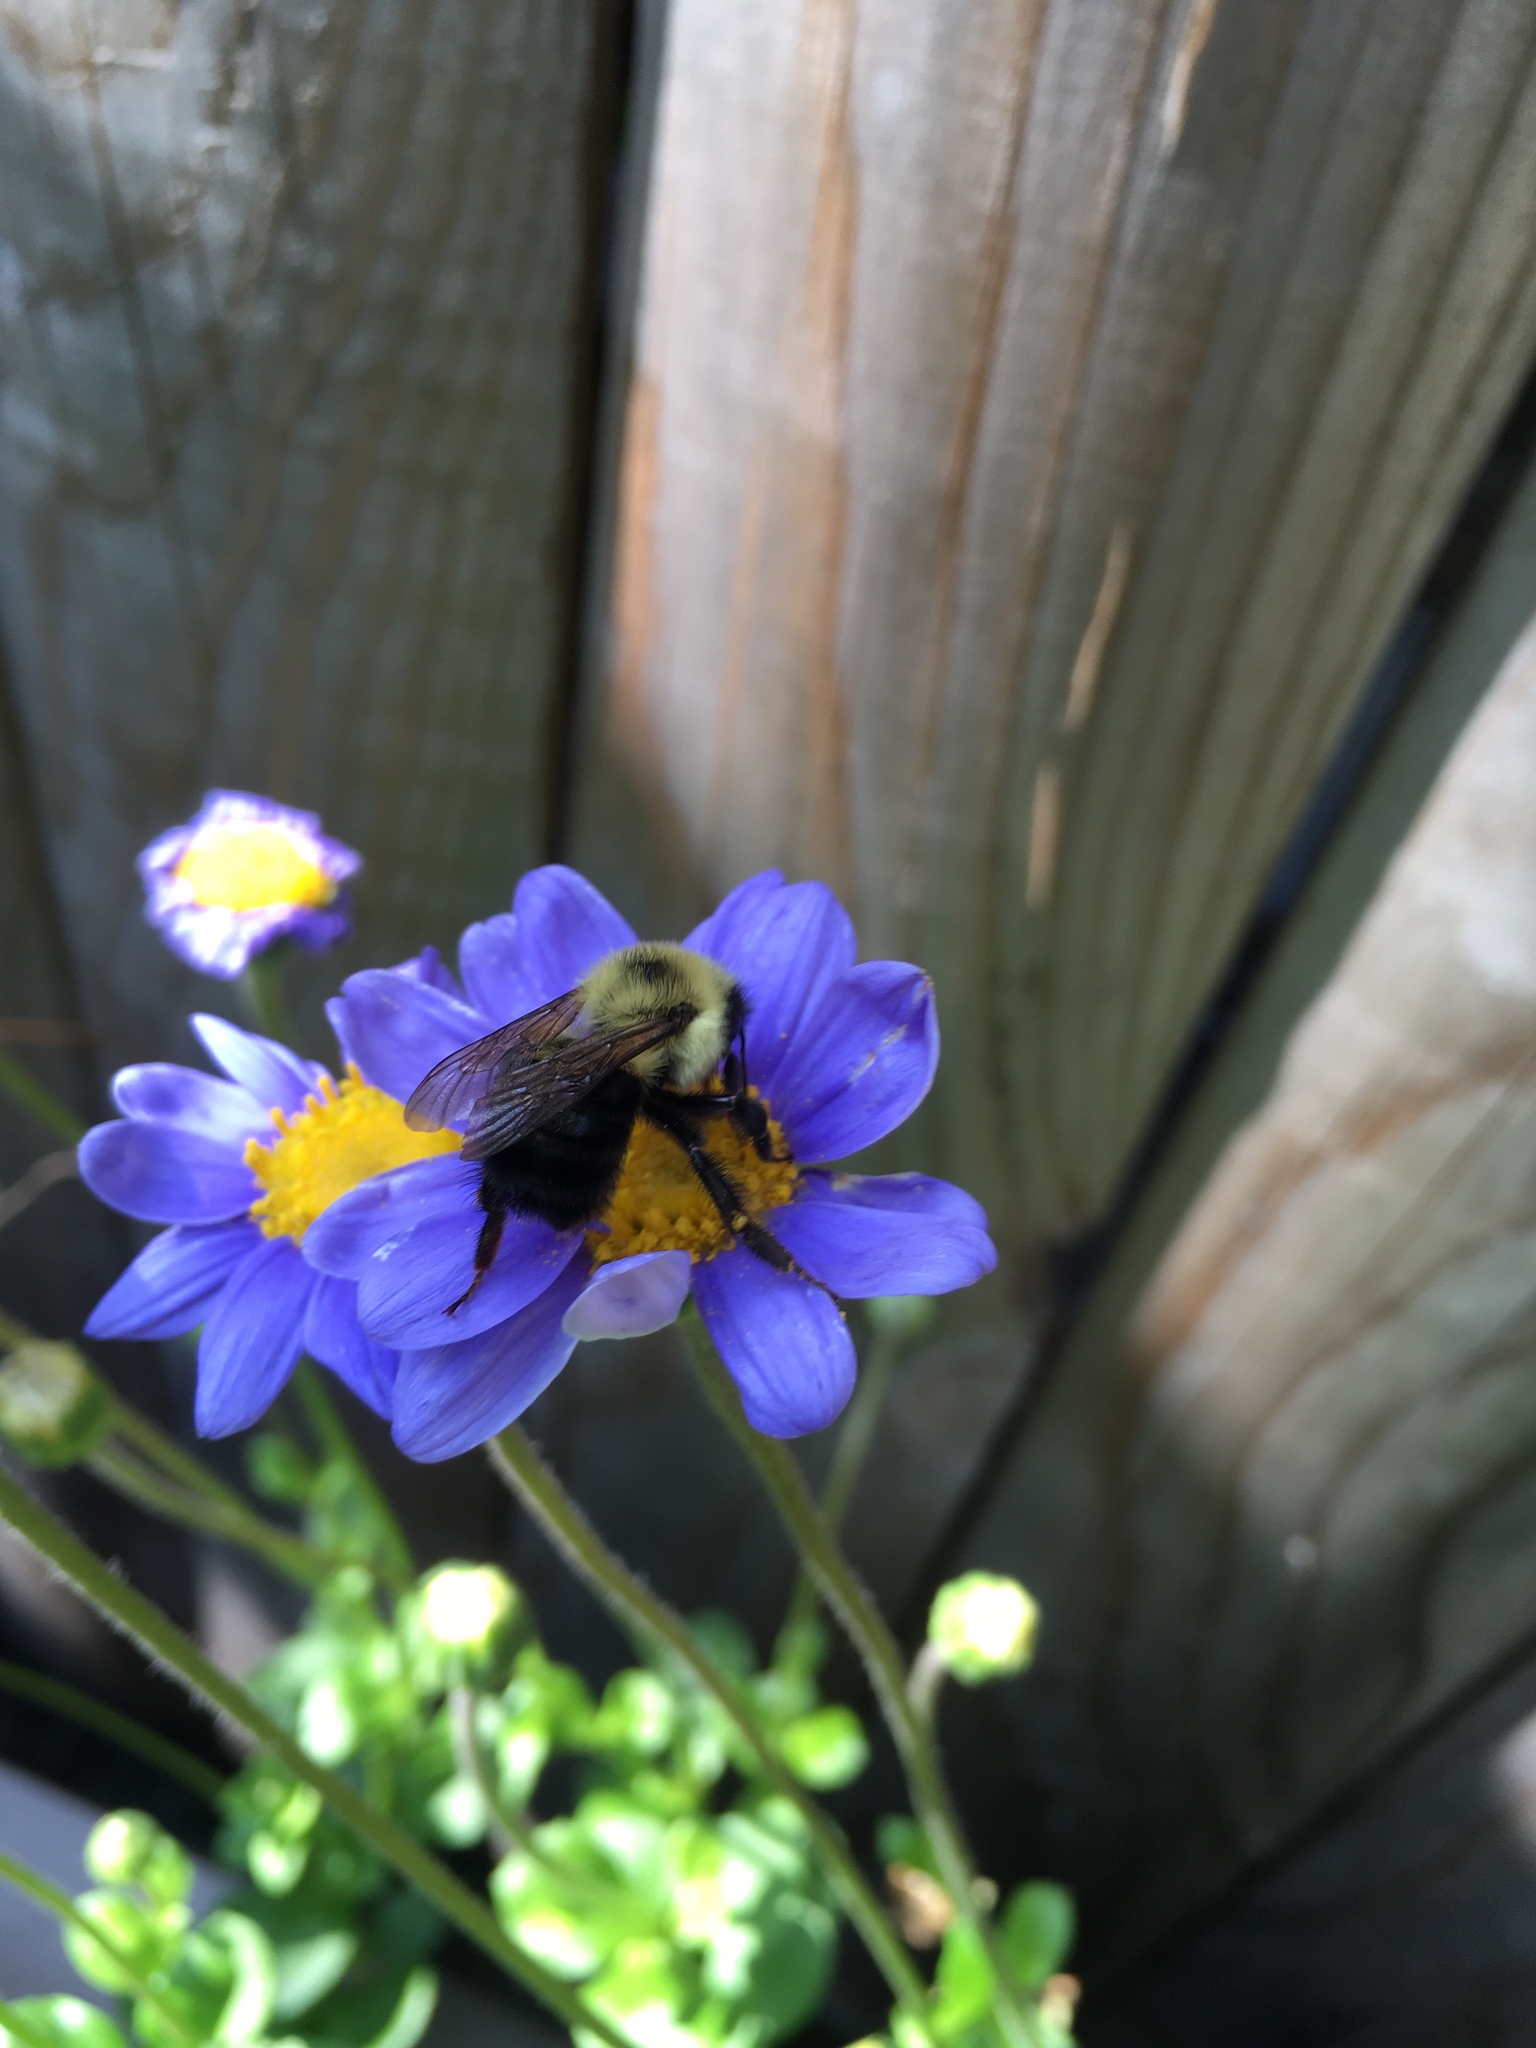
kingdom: Animalia
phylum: Arthropoda
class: Insecta
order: Hymenoptera
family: Apidae
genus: Bombus
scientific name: Bombus bimaculatus
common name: Two-spotted bumble bee
